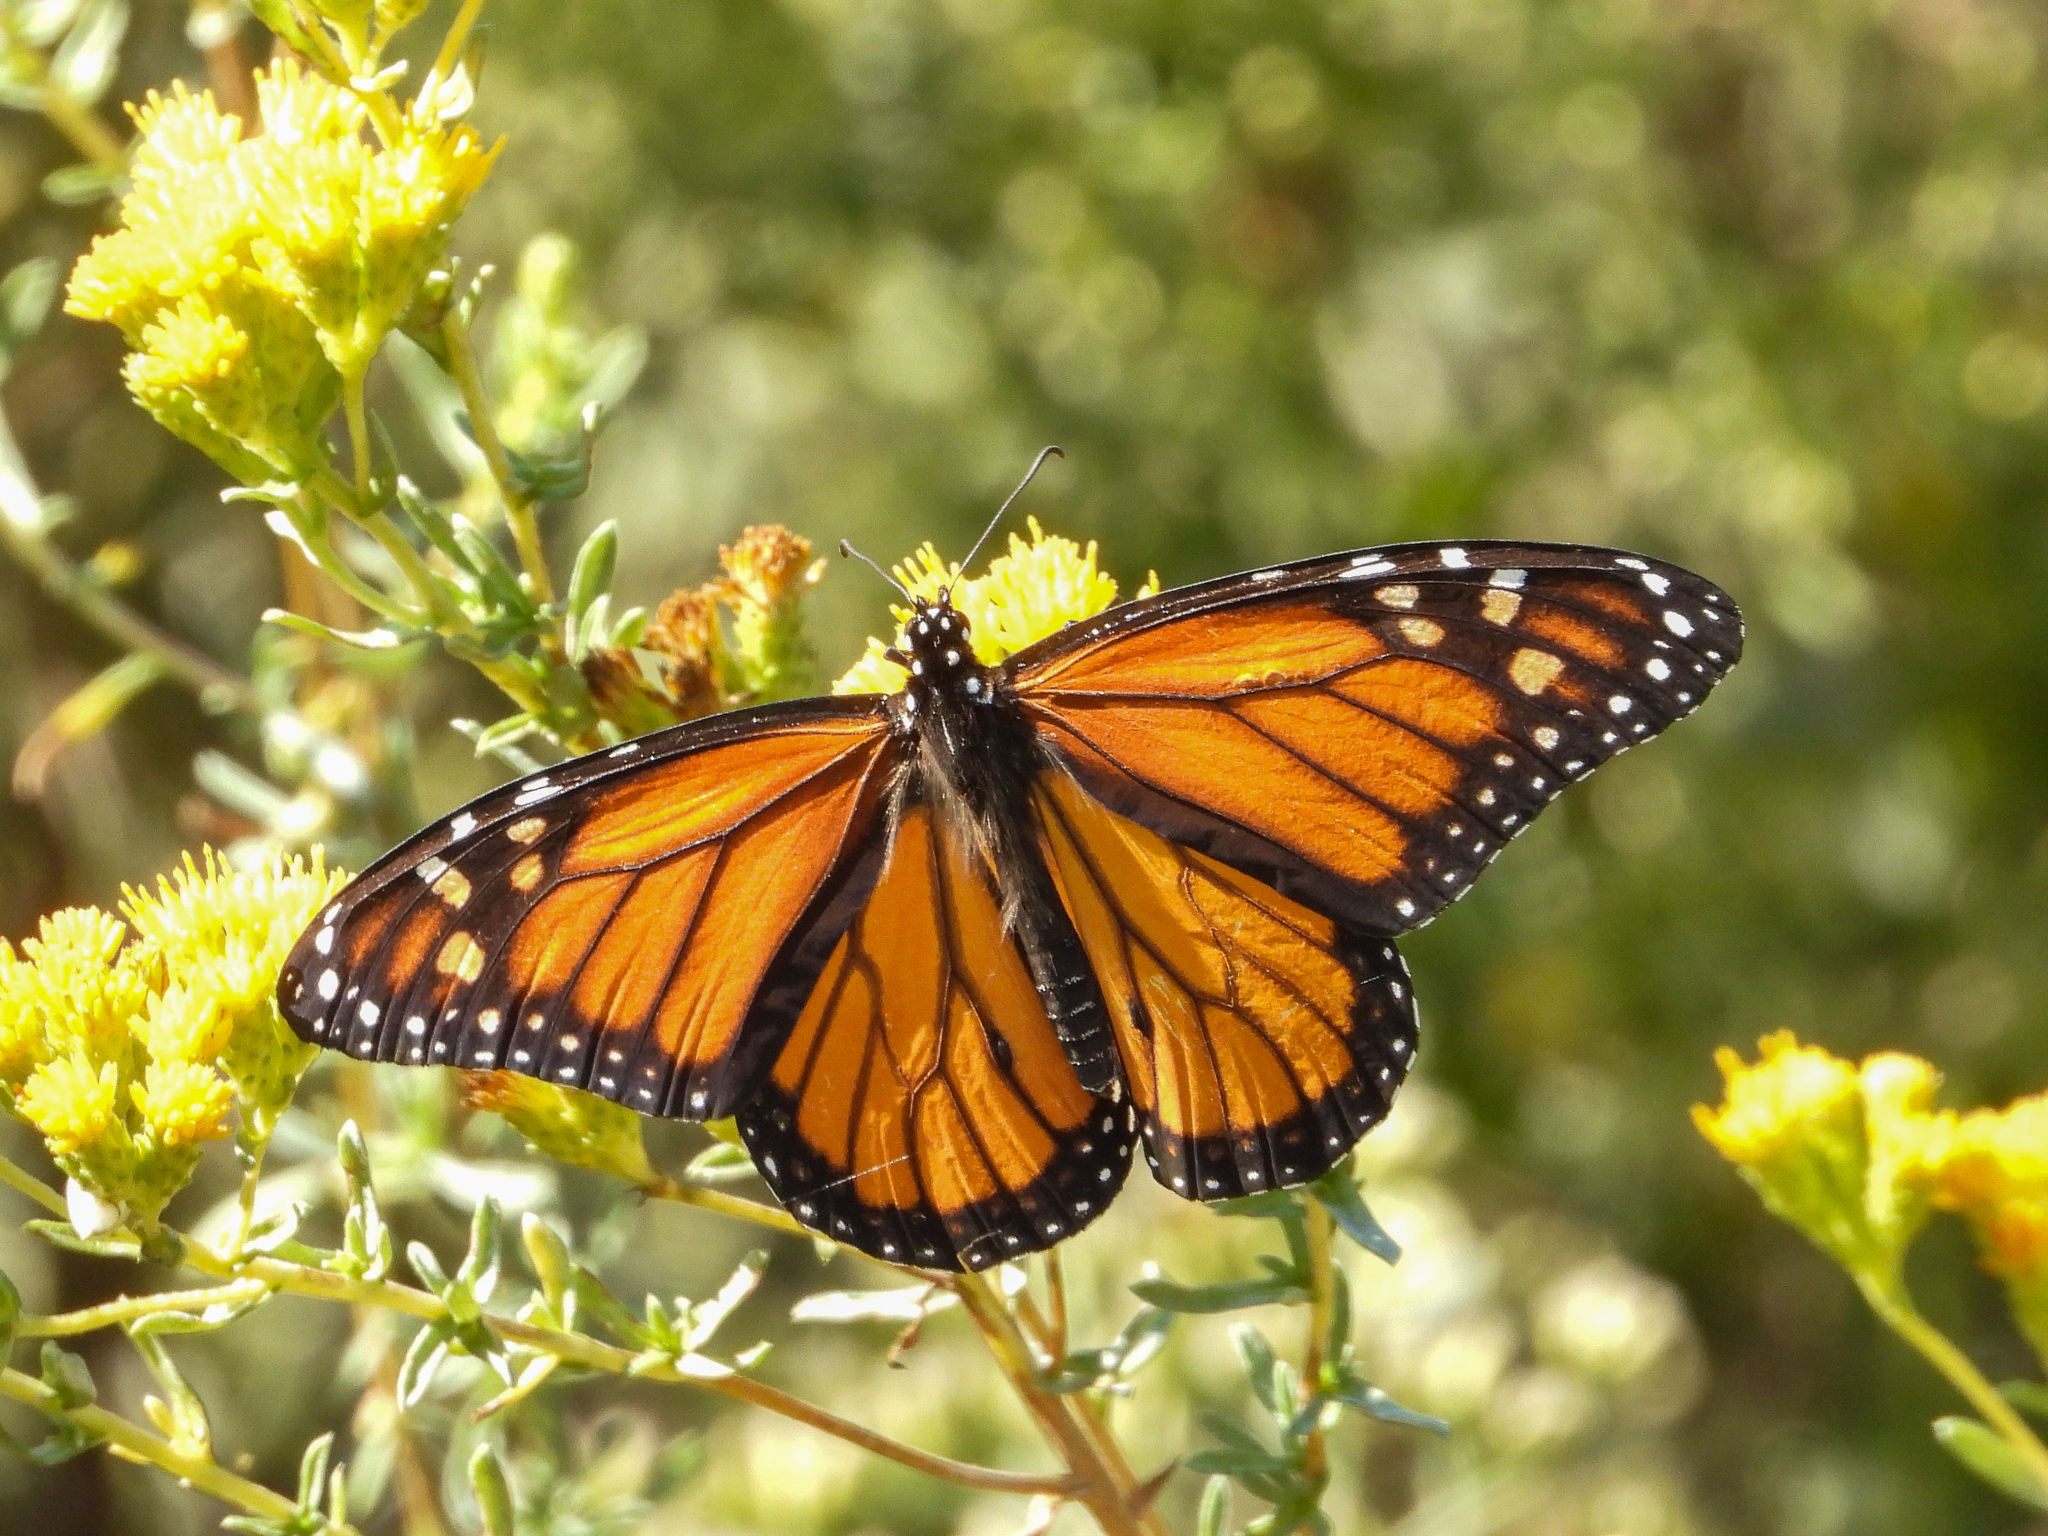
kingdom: Animalia
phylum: Arthropoda
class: Insecta
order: Lepidoptera
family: Nymphalidae
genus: Danaus
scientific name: Danaus plexippus
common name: Monarch
